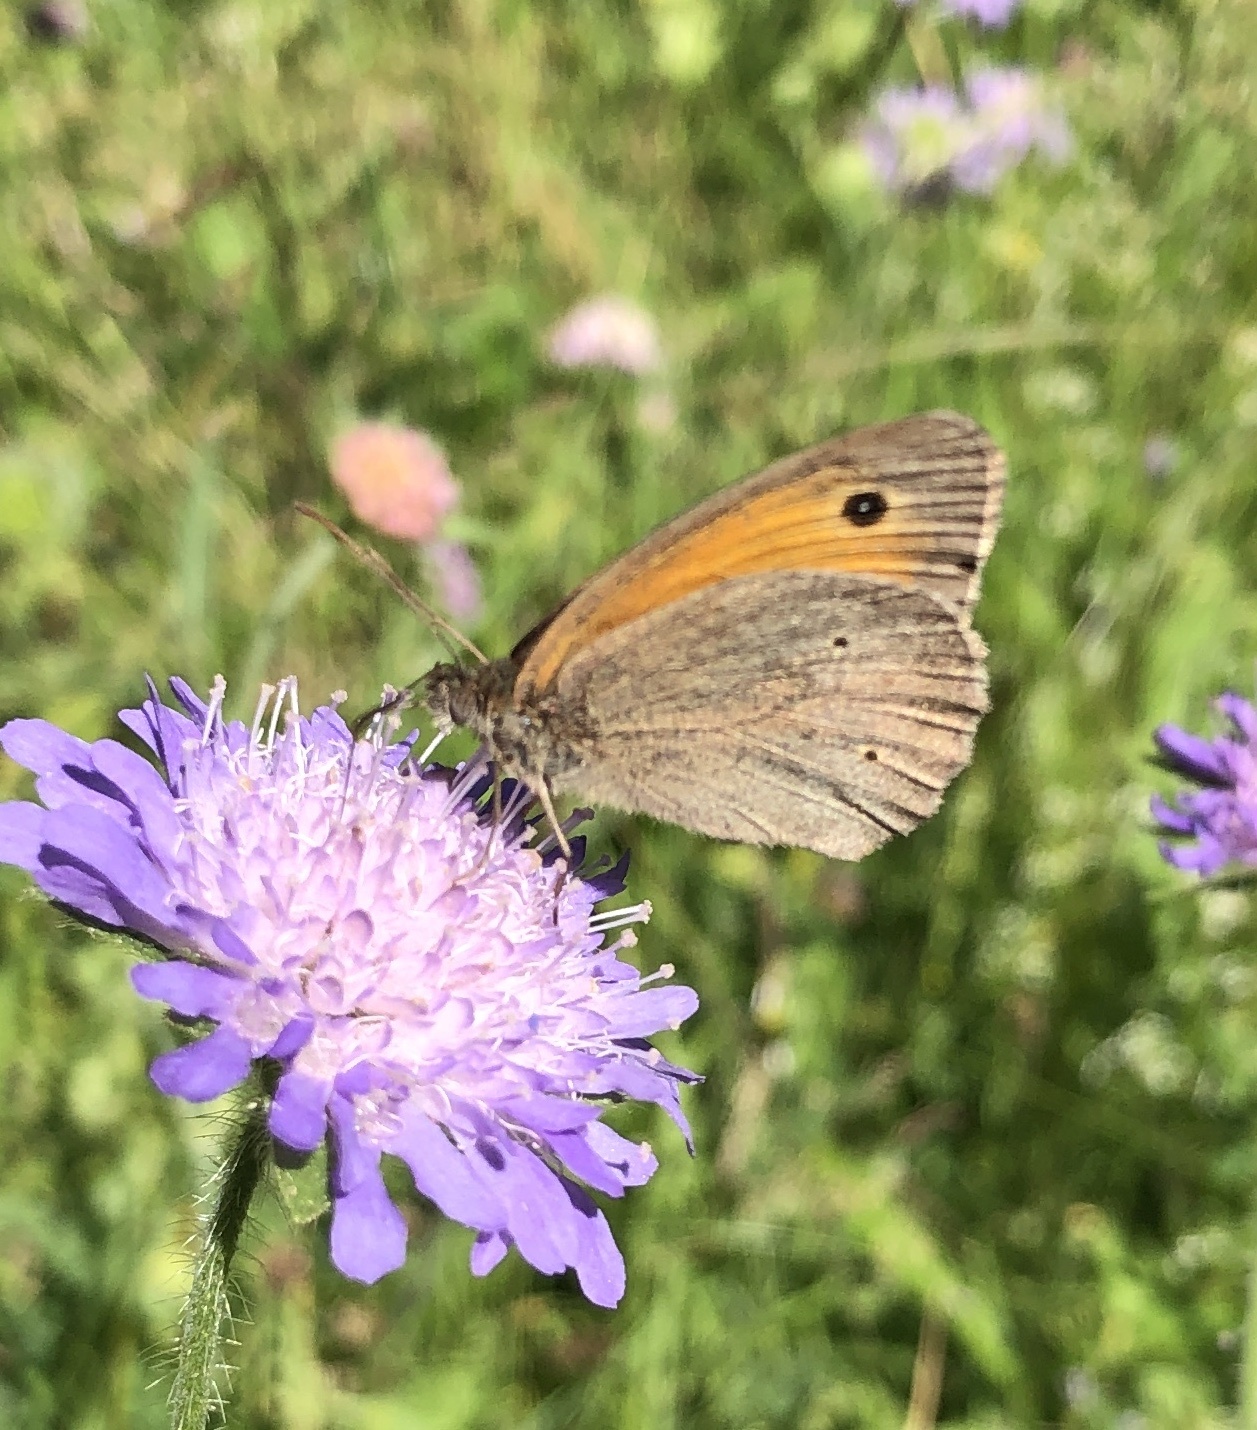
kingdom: Animalia
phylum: Arthropoda
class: Insecta
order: Lepidoptera
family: Nymphalidae
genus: Maniola
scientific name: Maniola jurtina
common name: Meadow brown
